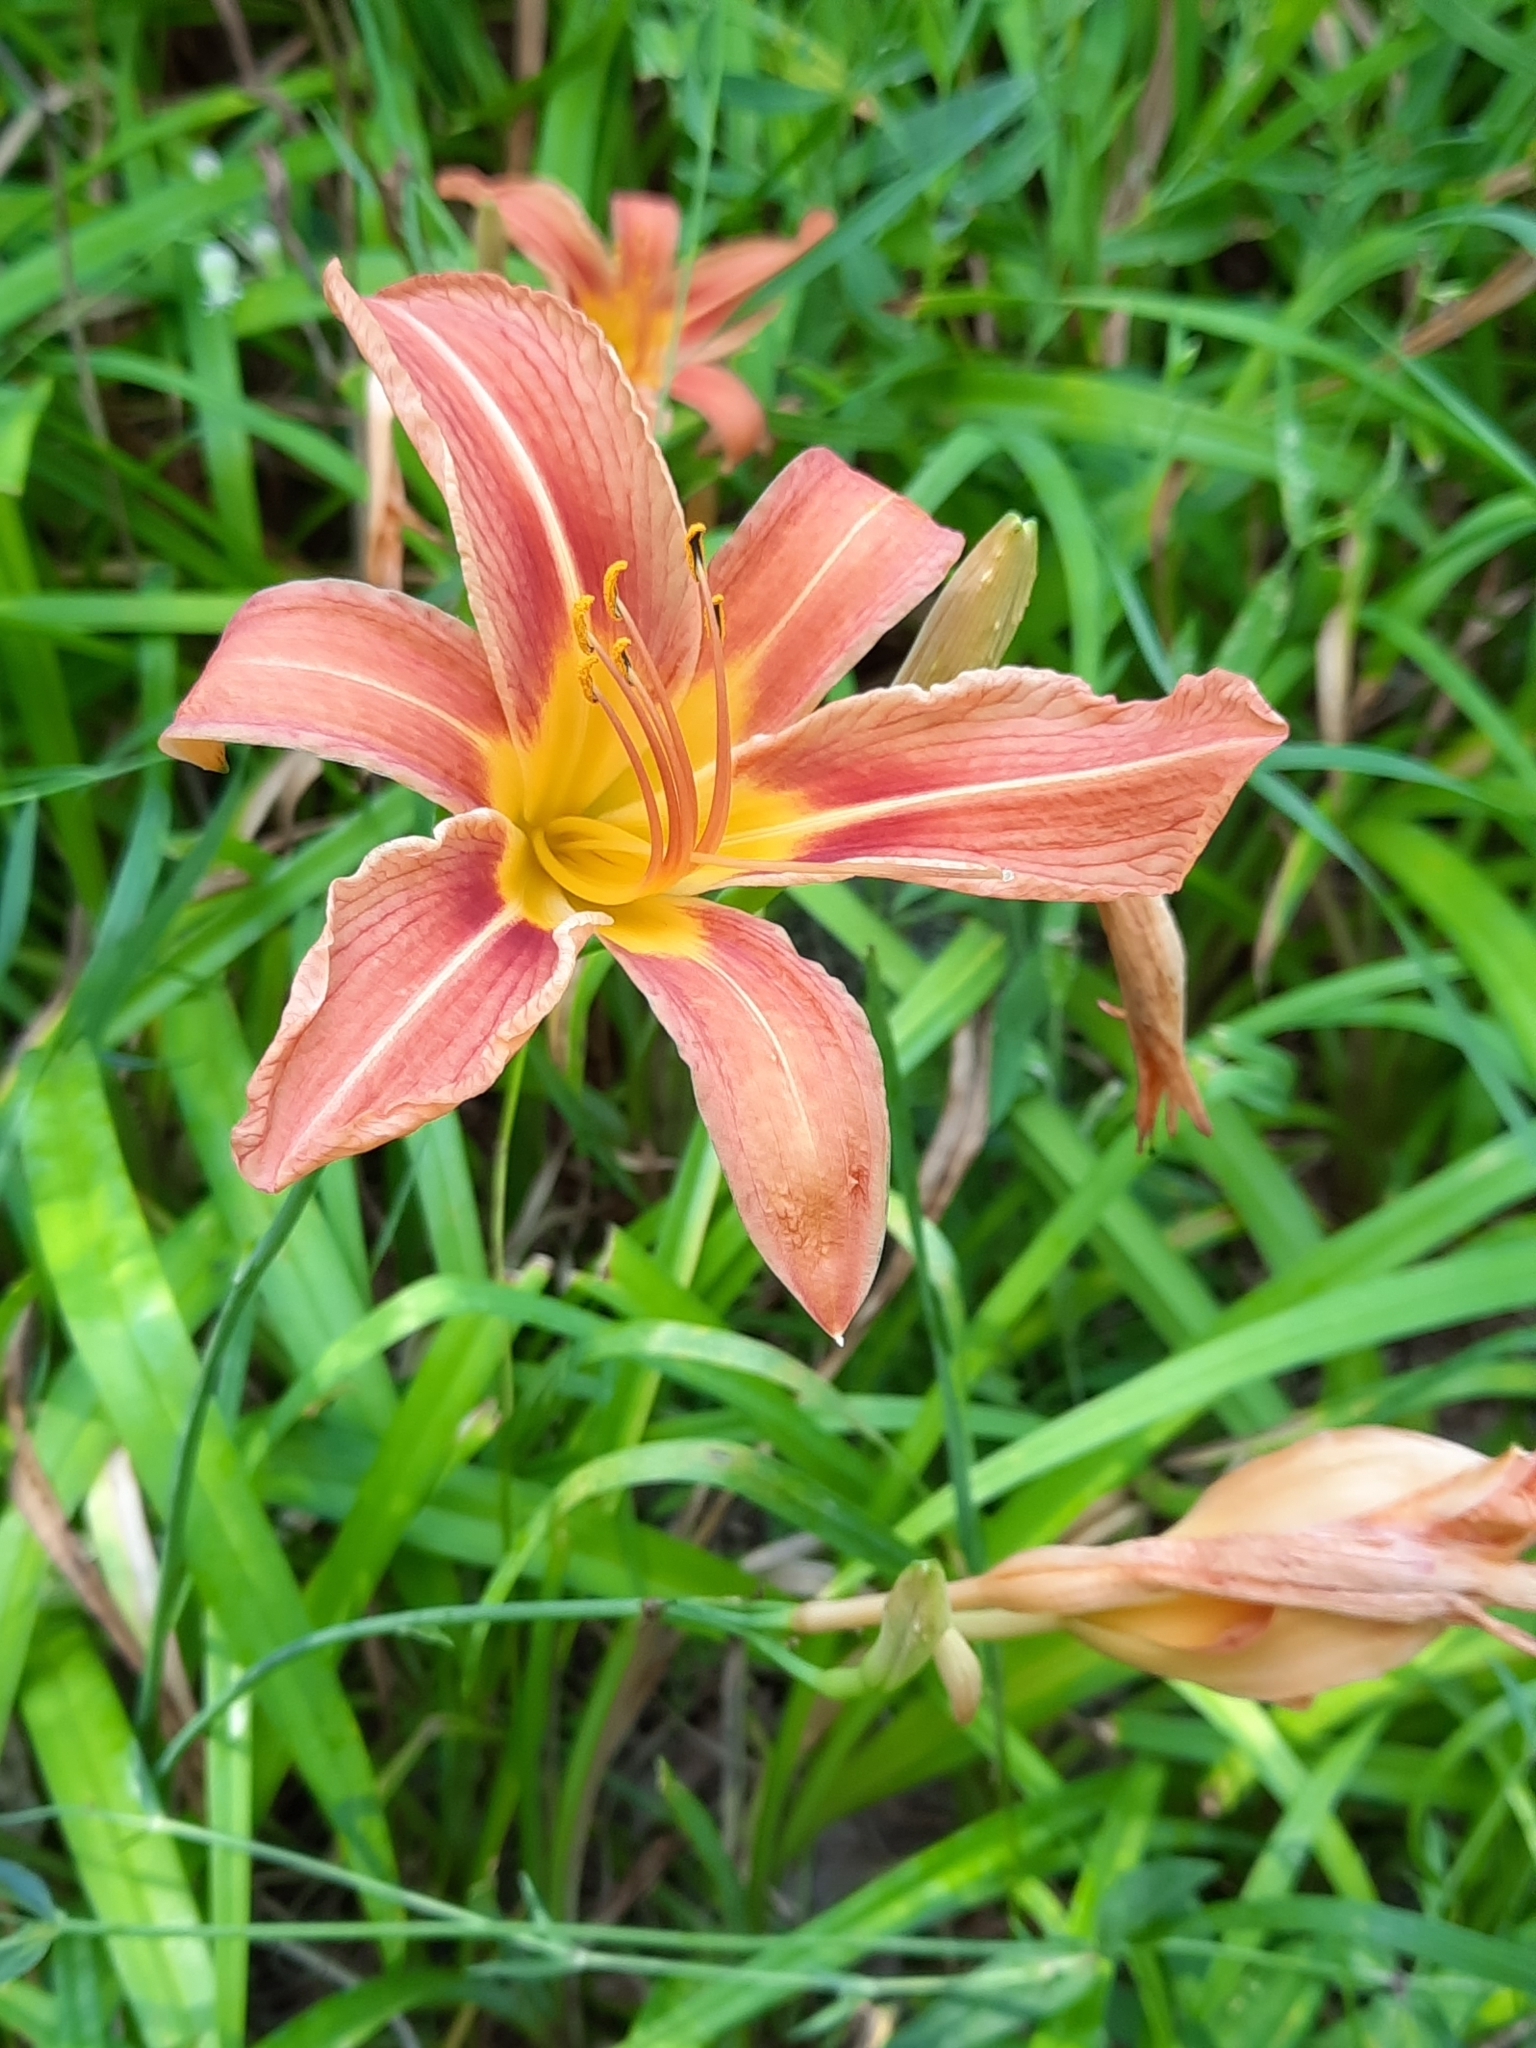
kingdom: Plantae
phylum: Tracheophyta
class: Liliopsida
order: Asparagales
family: Asphodelaceae
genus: Hemerocallis
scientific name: Hemerocallis fulva
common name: Orange day-lily
